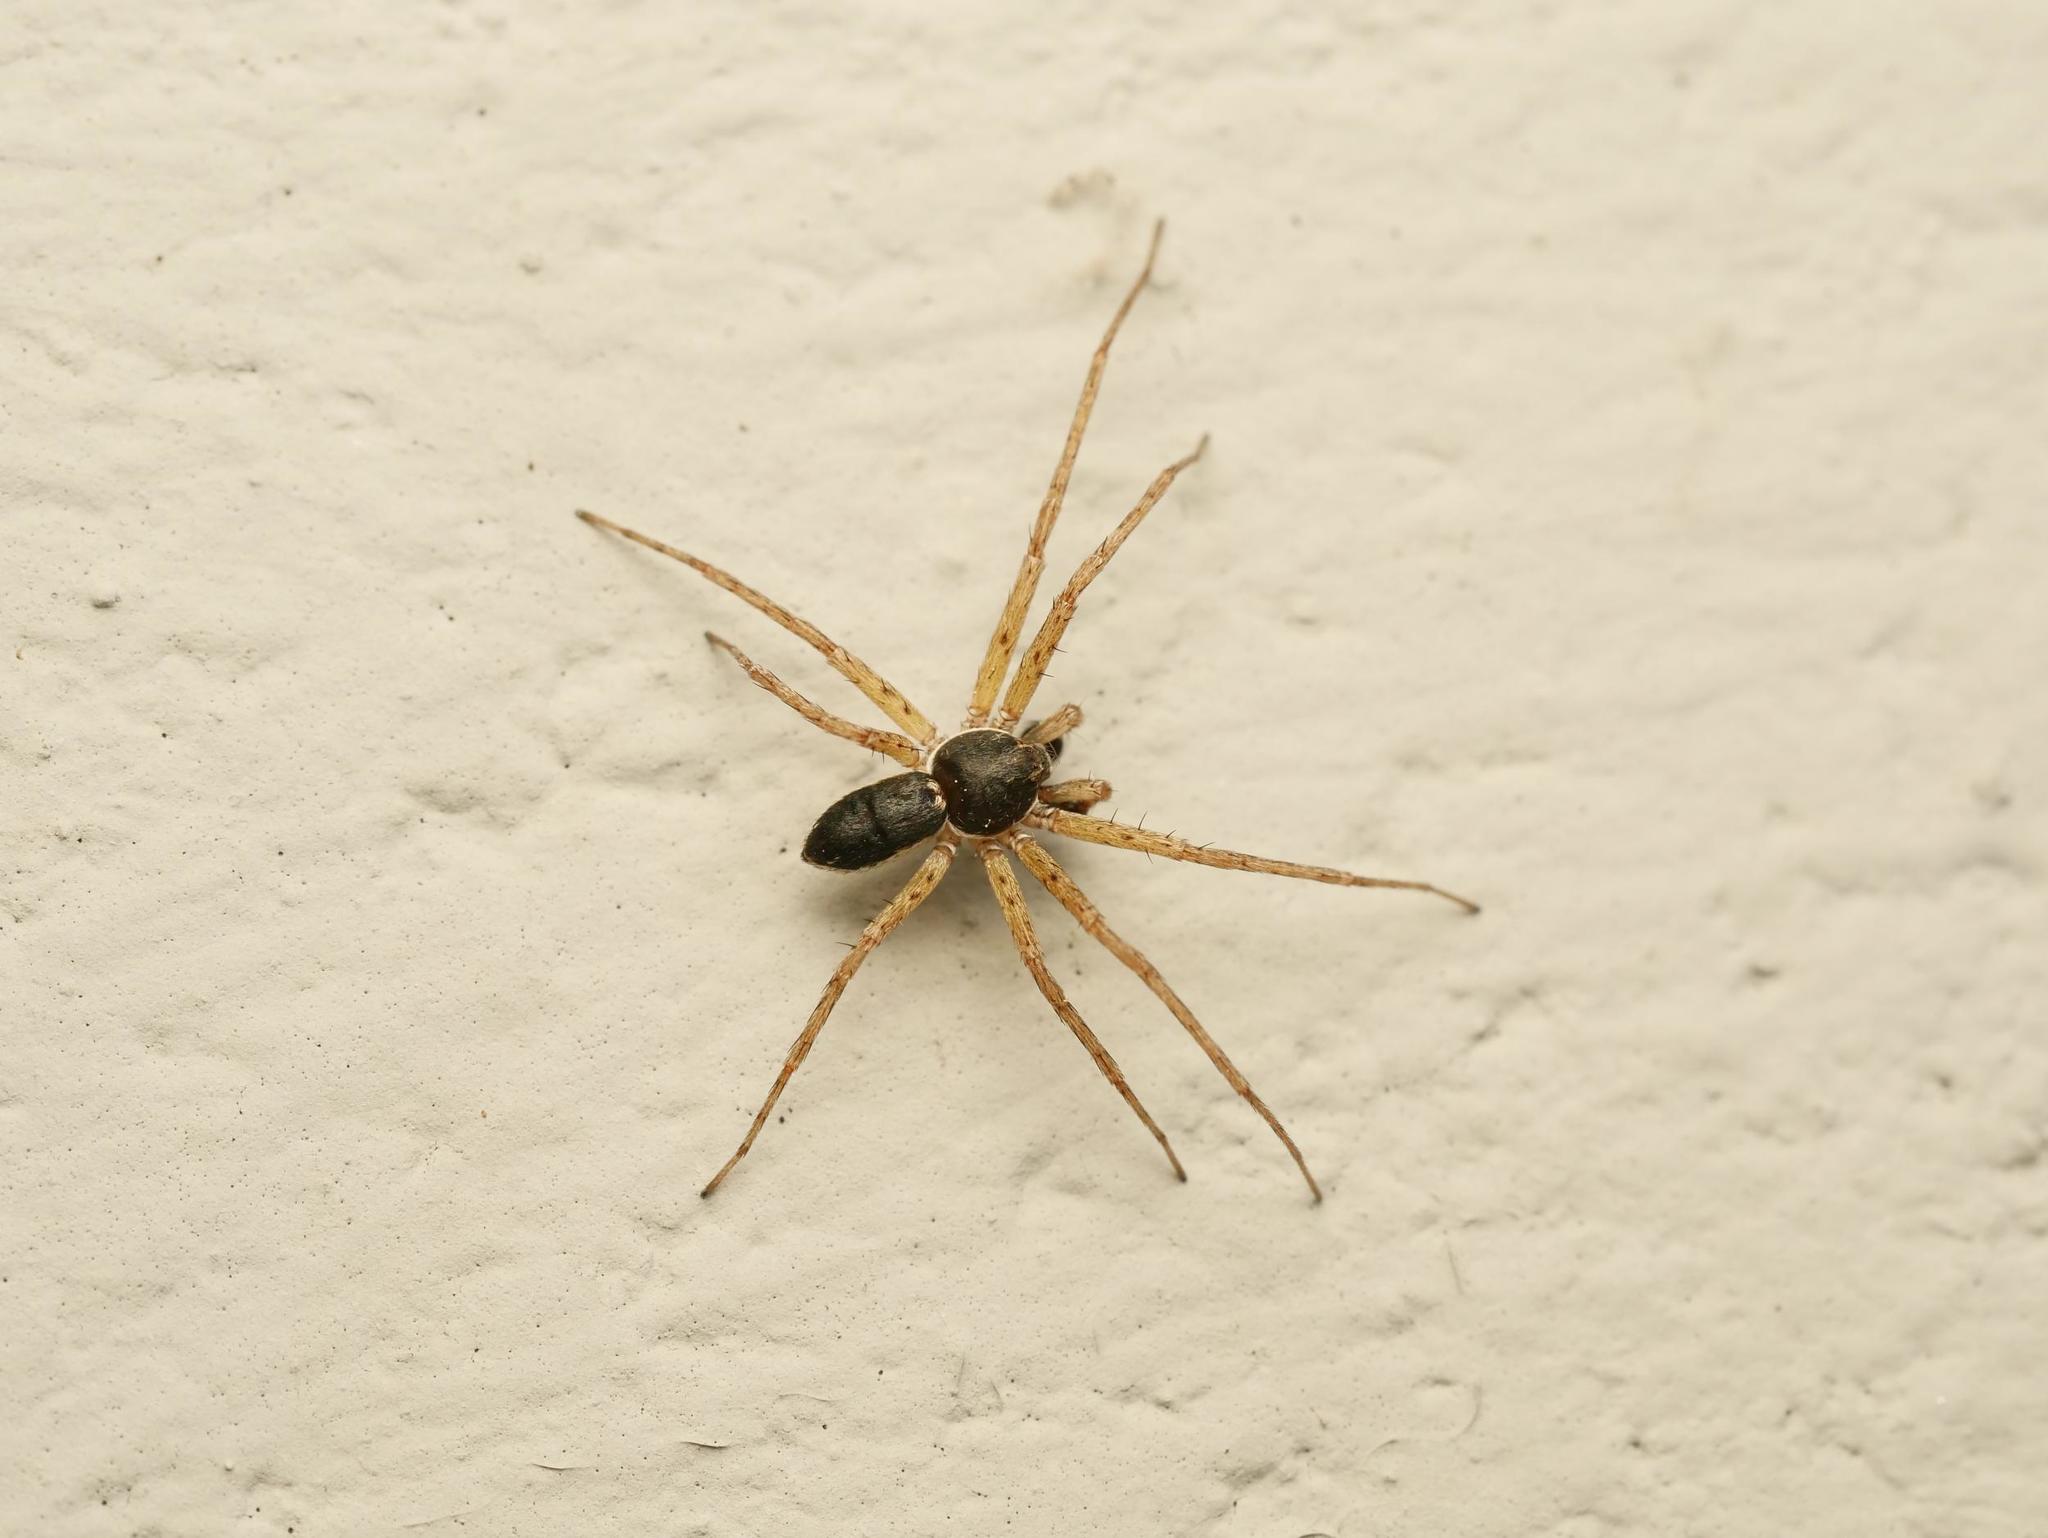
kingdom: Animalia
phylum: Arthropoda
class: Arachnida
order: Araneae
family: Philodromidae
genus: Philodromus
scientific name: Philodromus dispar
